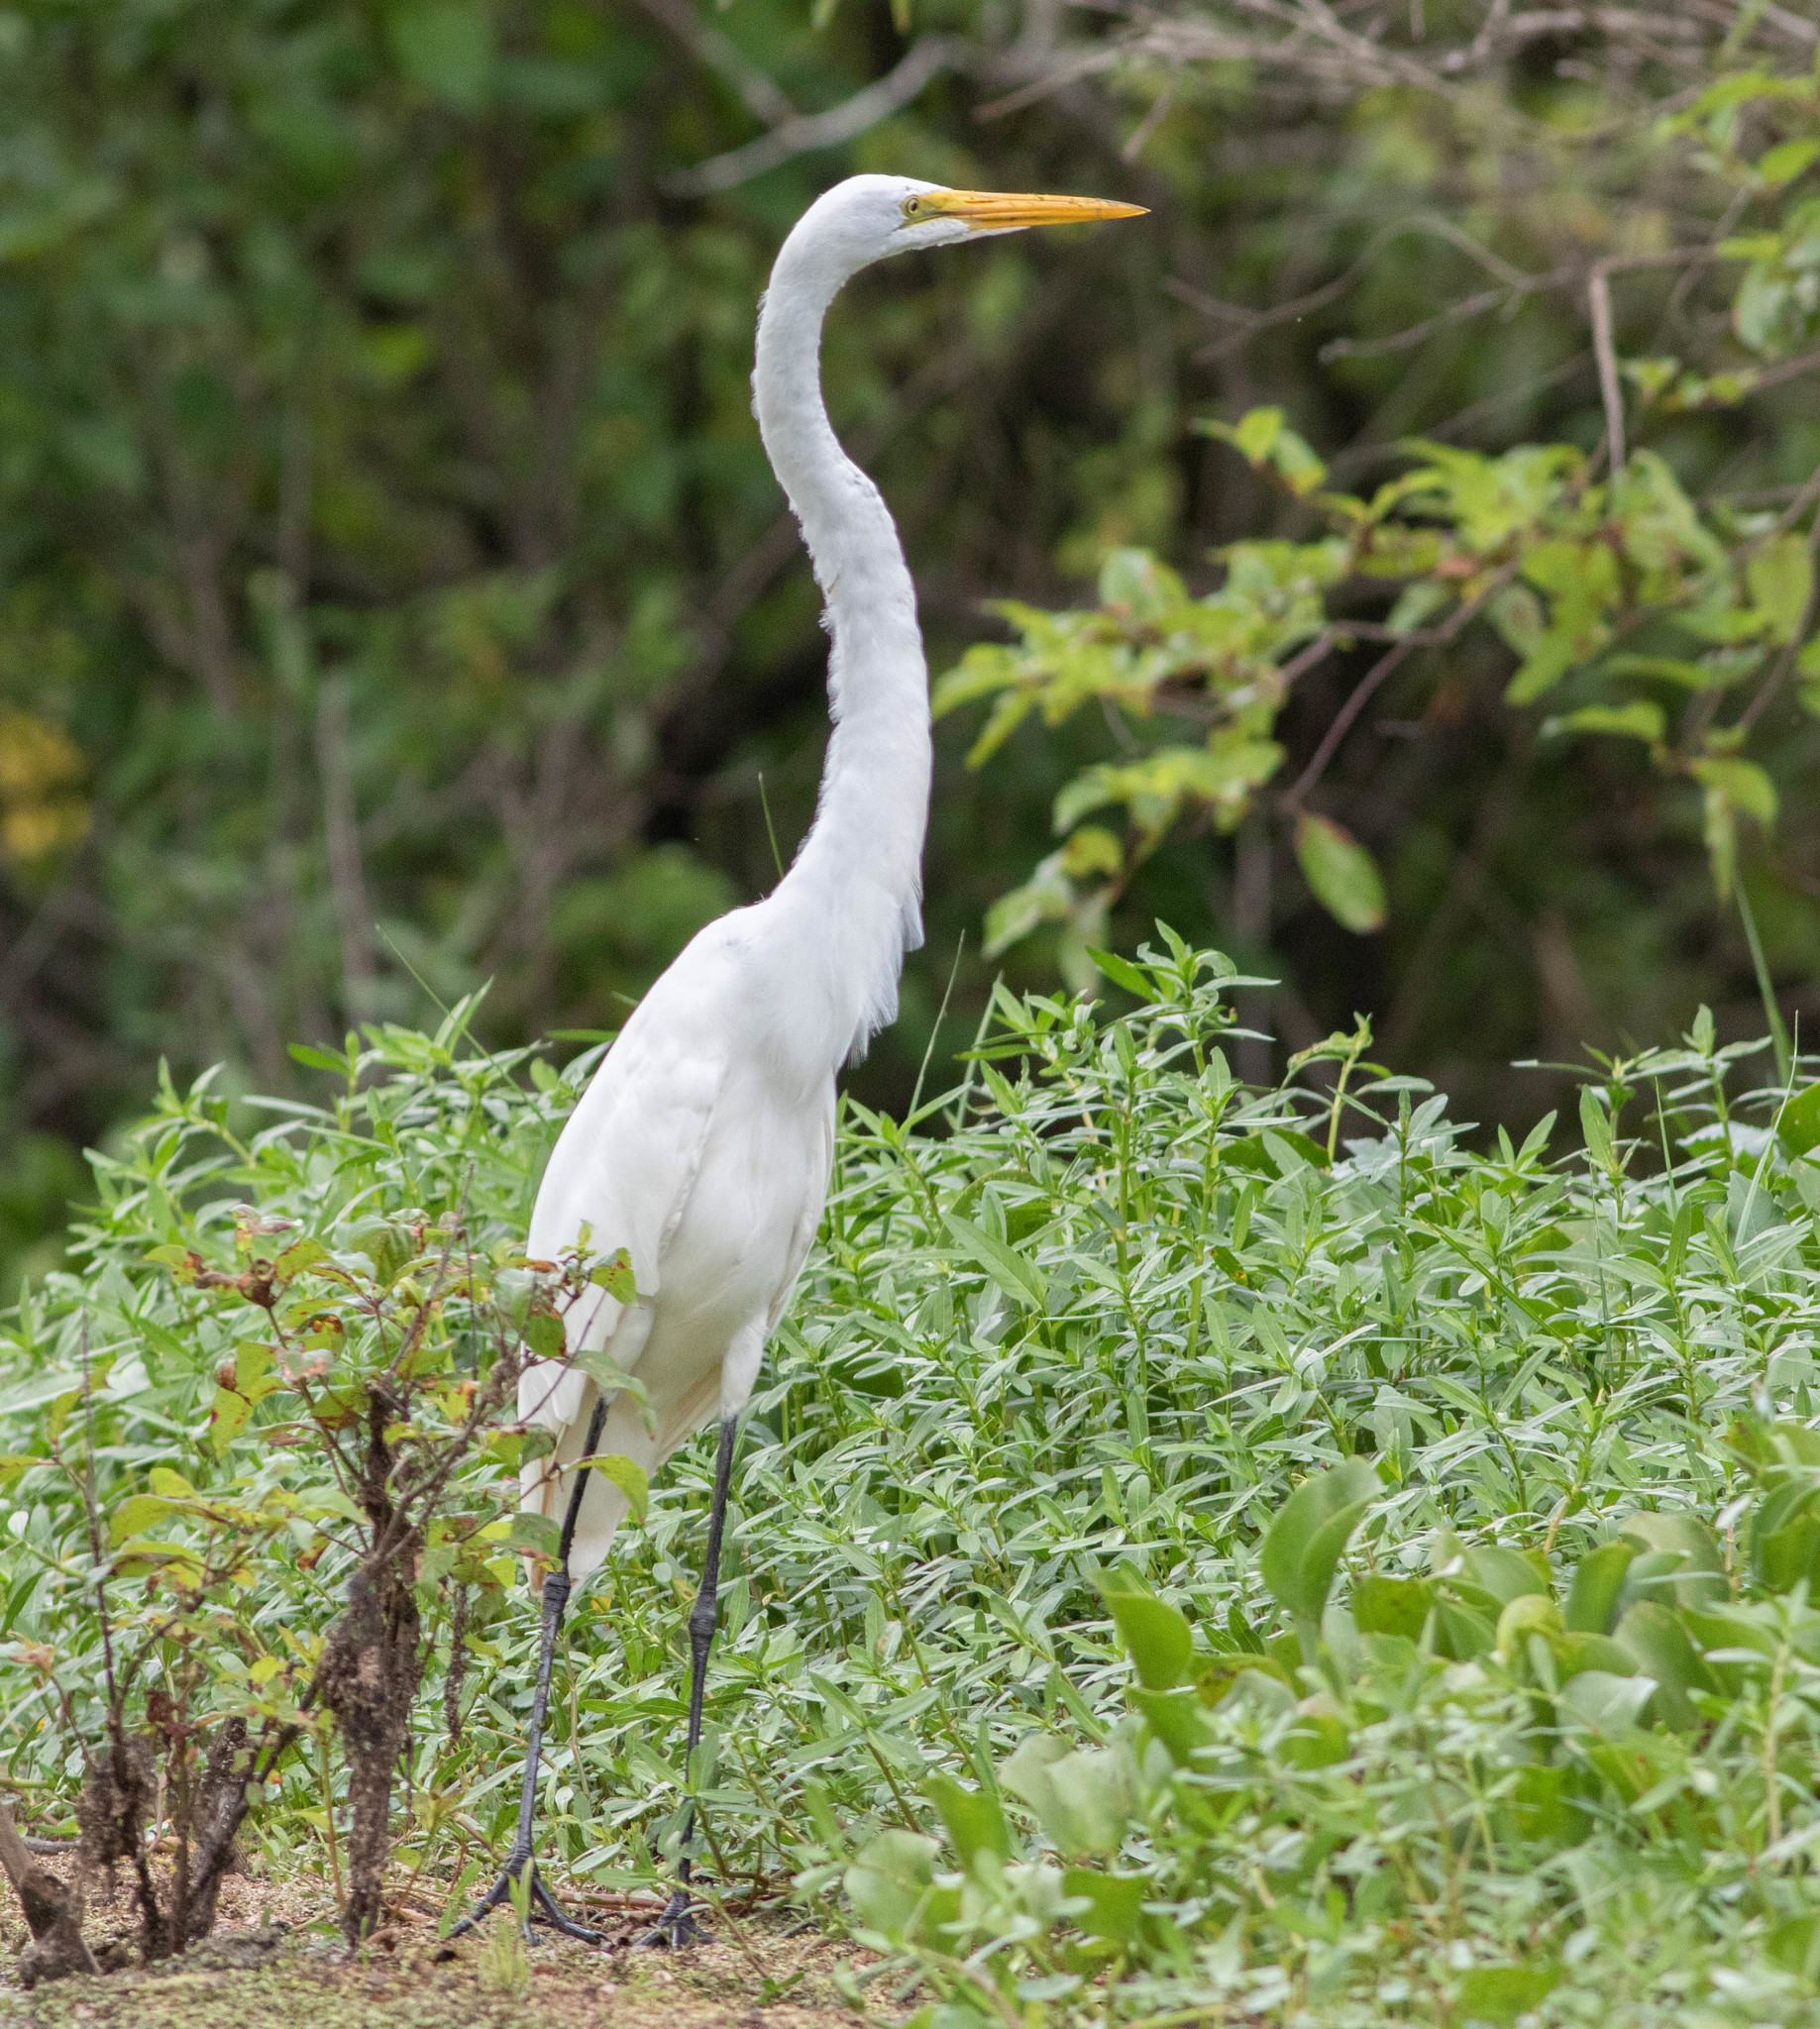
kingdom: Animalia
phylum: Chordata
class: Aves
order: Pelecaniformes
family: Ardeidae
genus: Ardea
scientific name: Ardea alba
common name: Great egret
